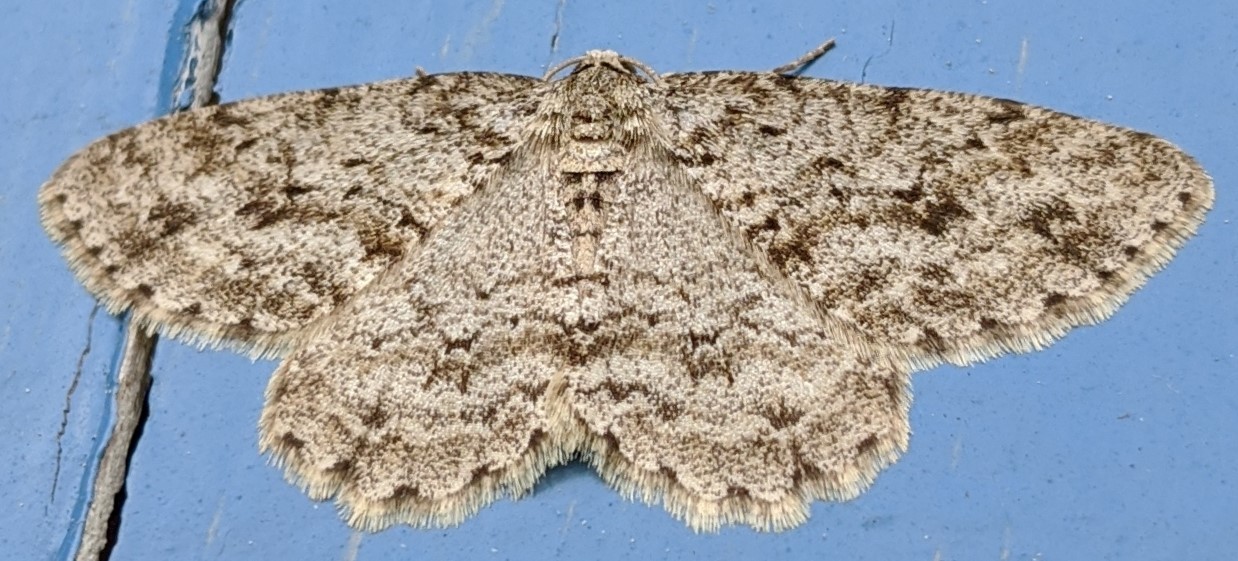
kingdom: Animalia
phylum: Arthropoda
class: Insecta
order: Lepidoptera
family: Geometridae
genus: Ectropis
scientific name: Ectropis crepuscularia
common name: Engrailed
